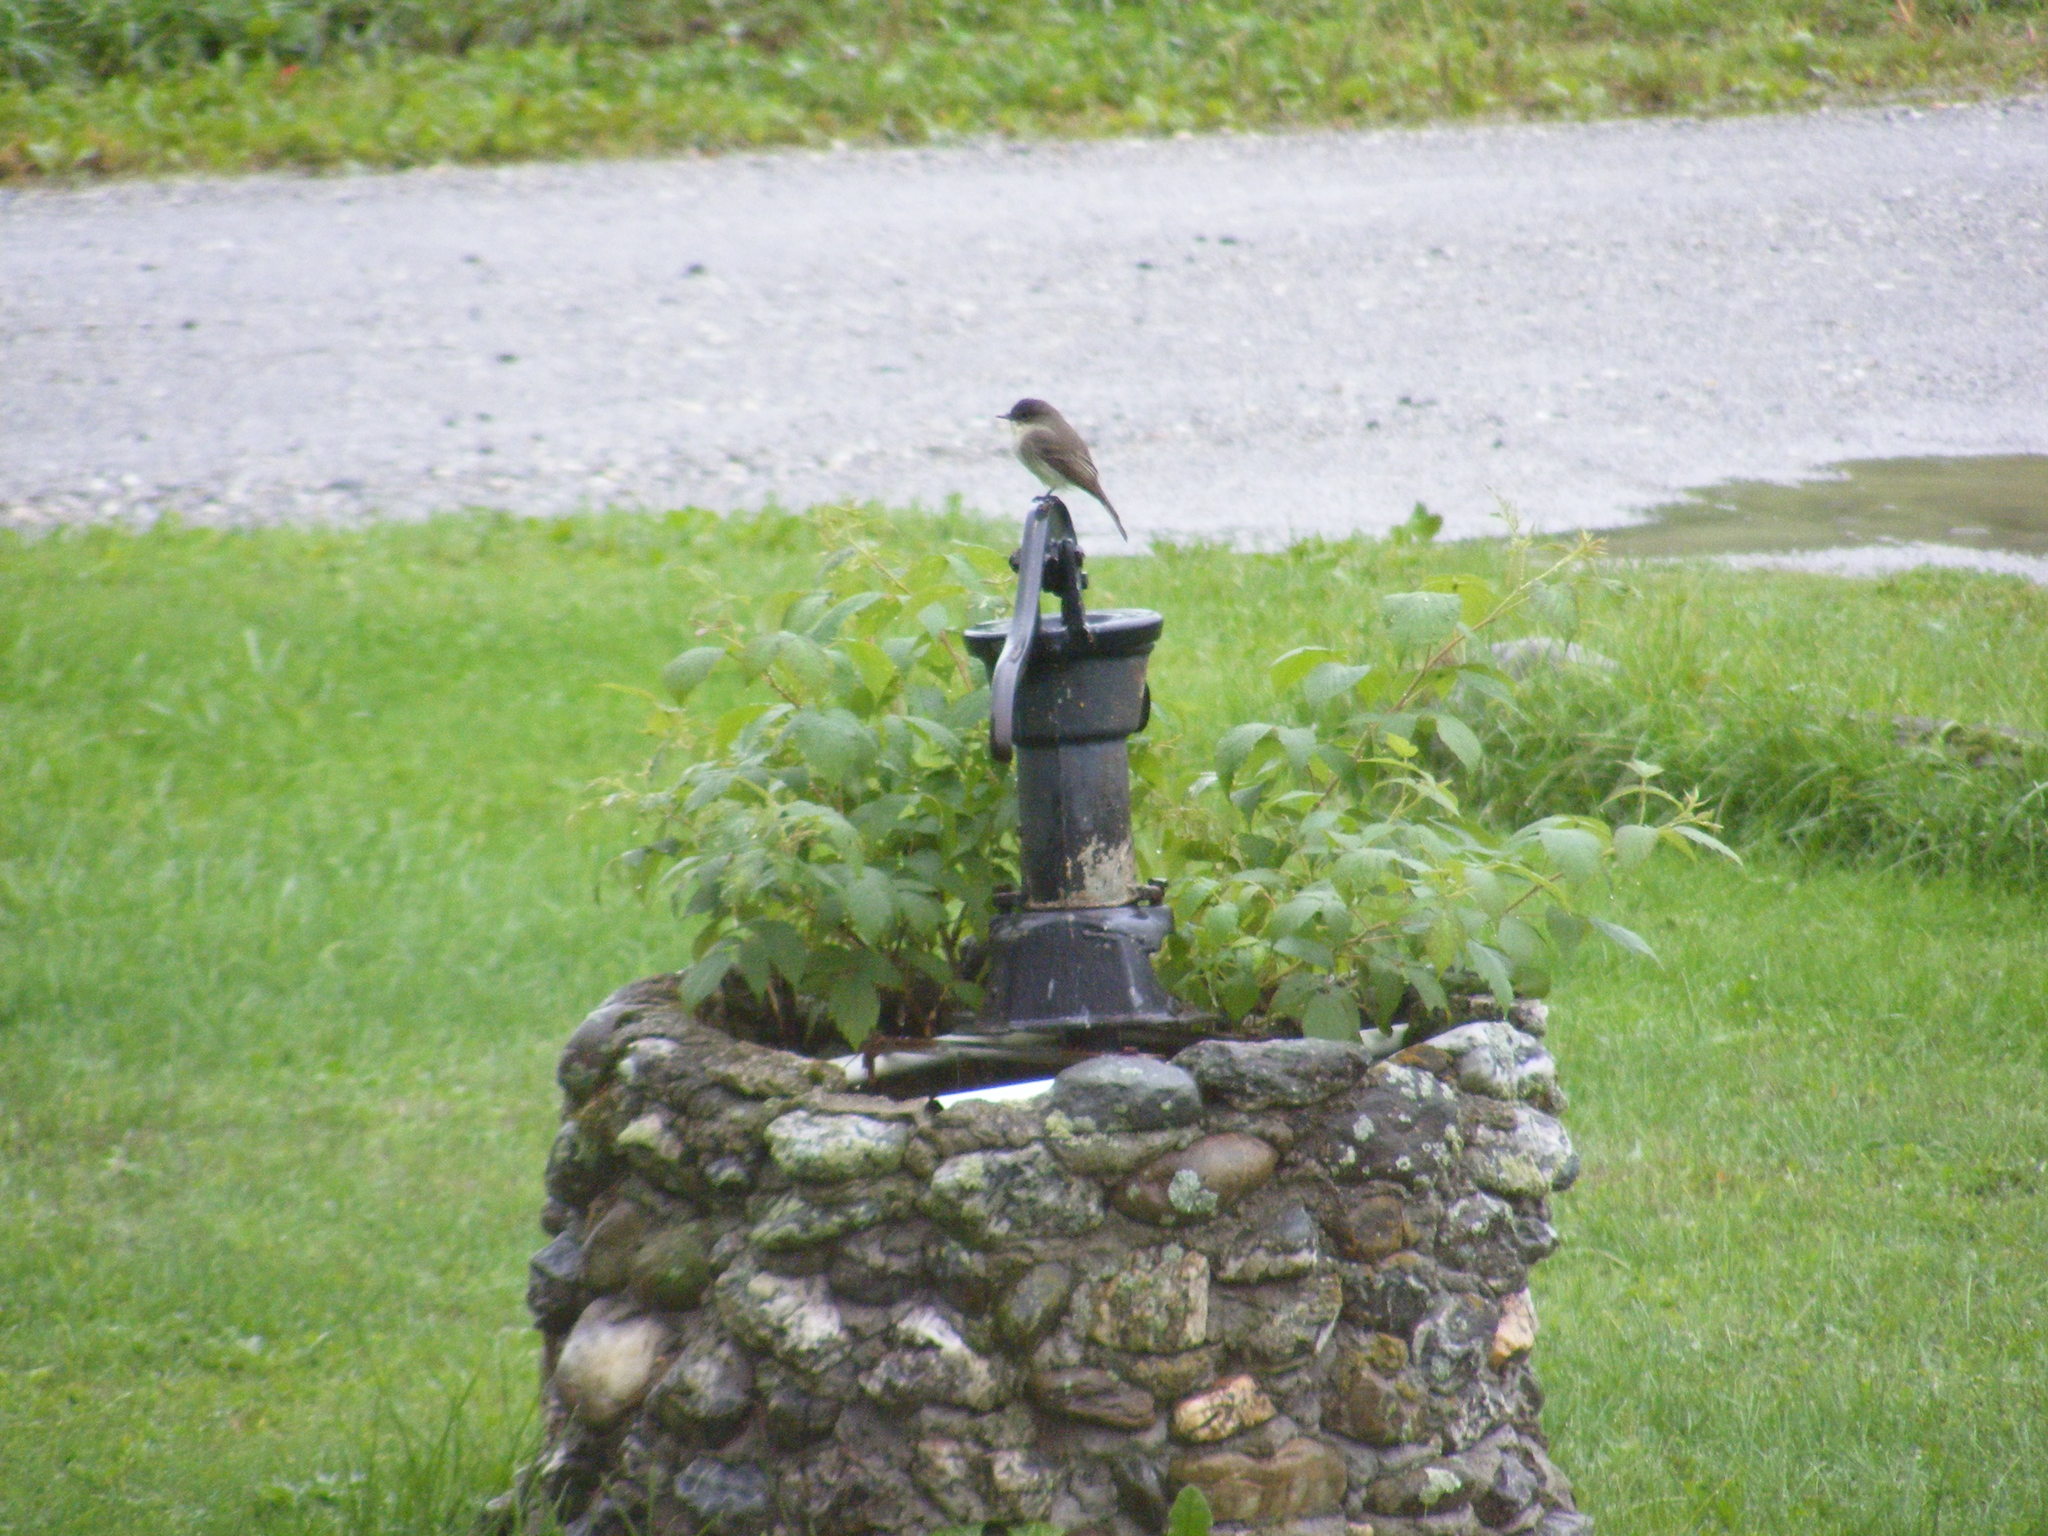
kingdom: Animalia
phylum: Chordata
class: Aves
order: Passeriformes
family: Tyrannidae
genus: Sayornis
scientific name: Sayornis phoebe
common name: Eastern phoebe
